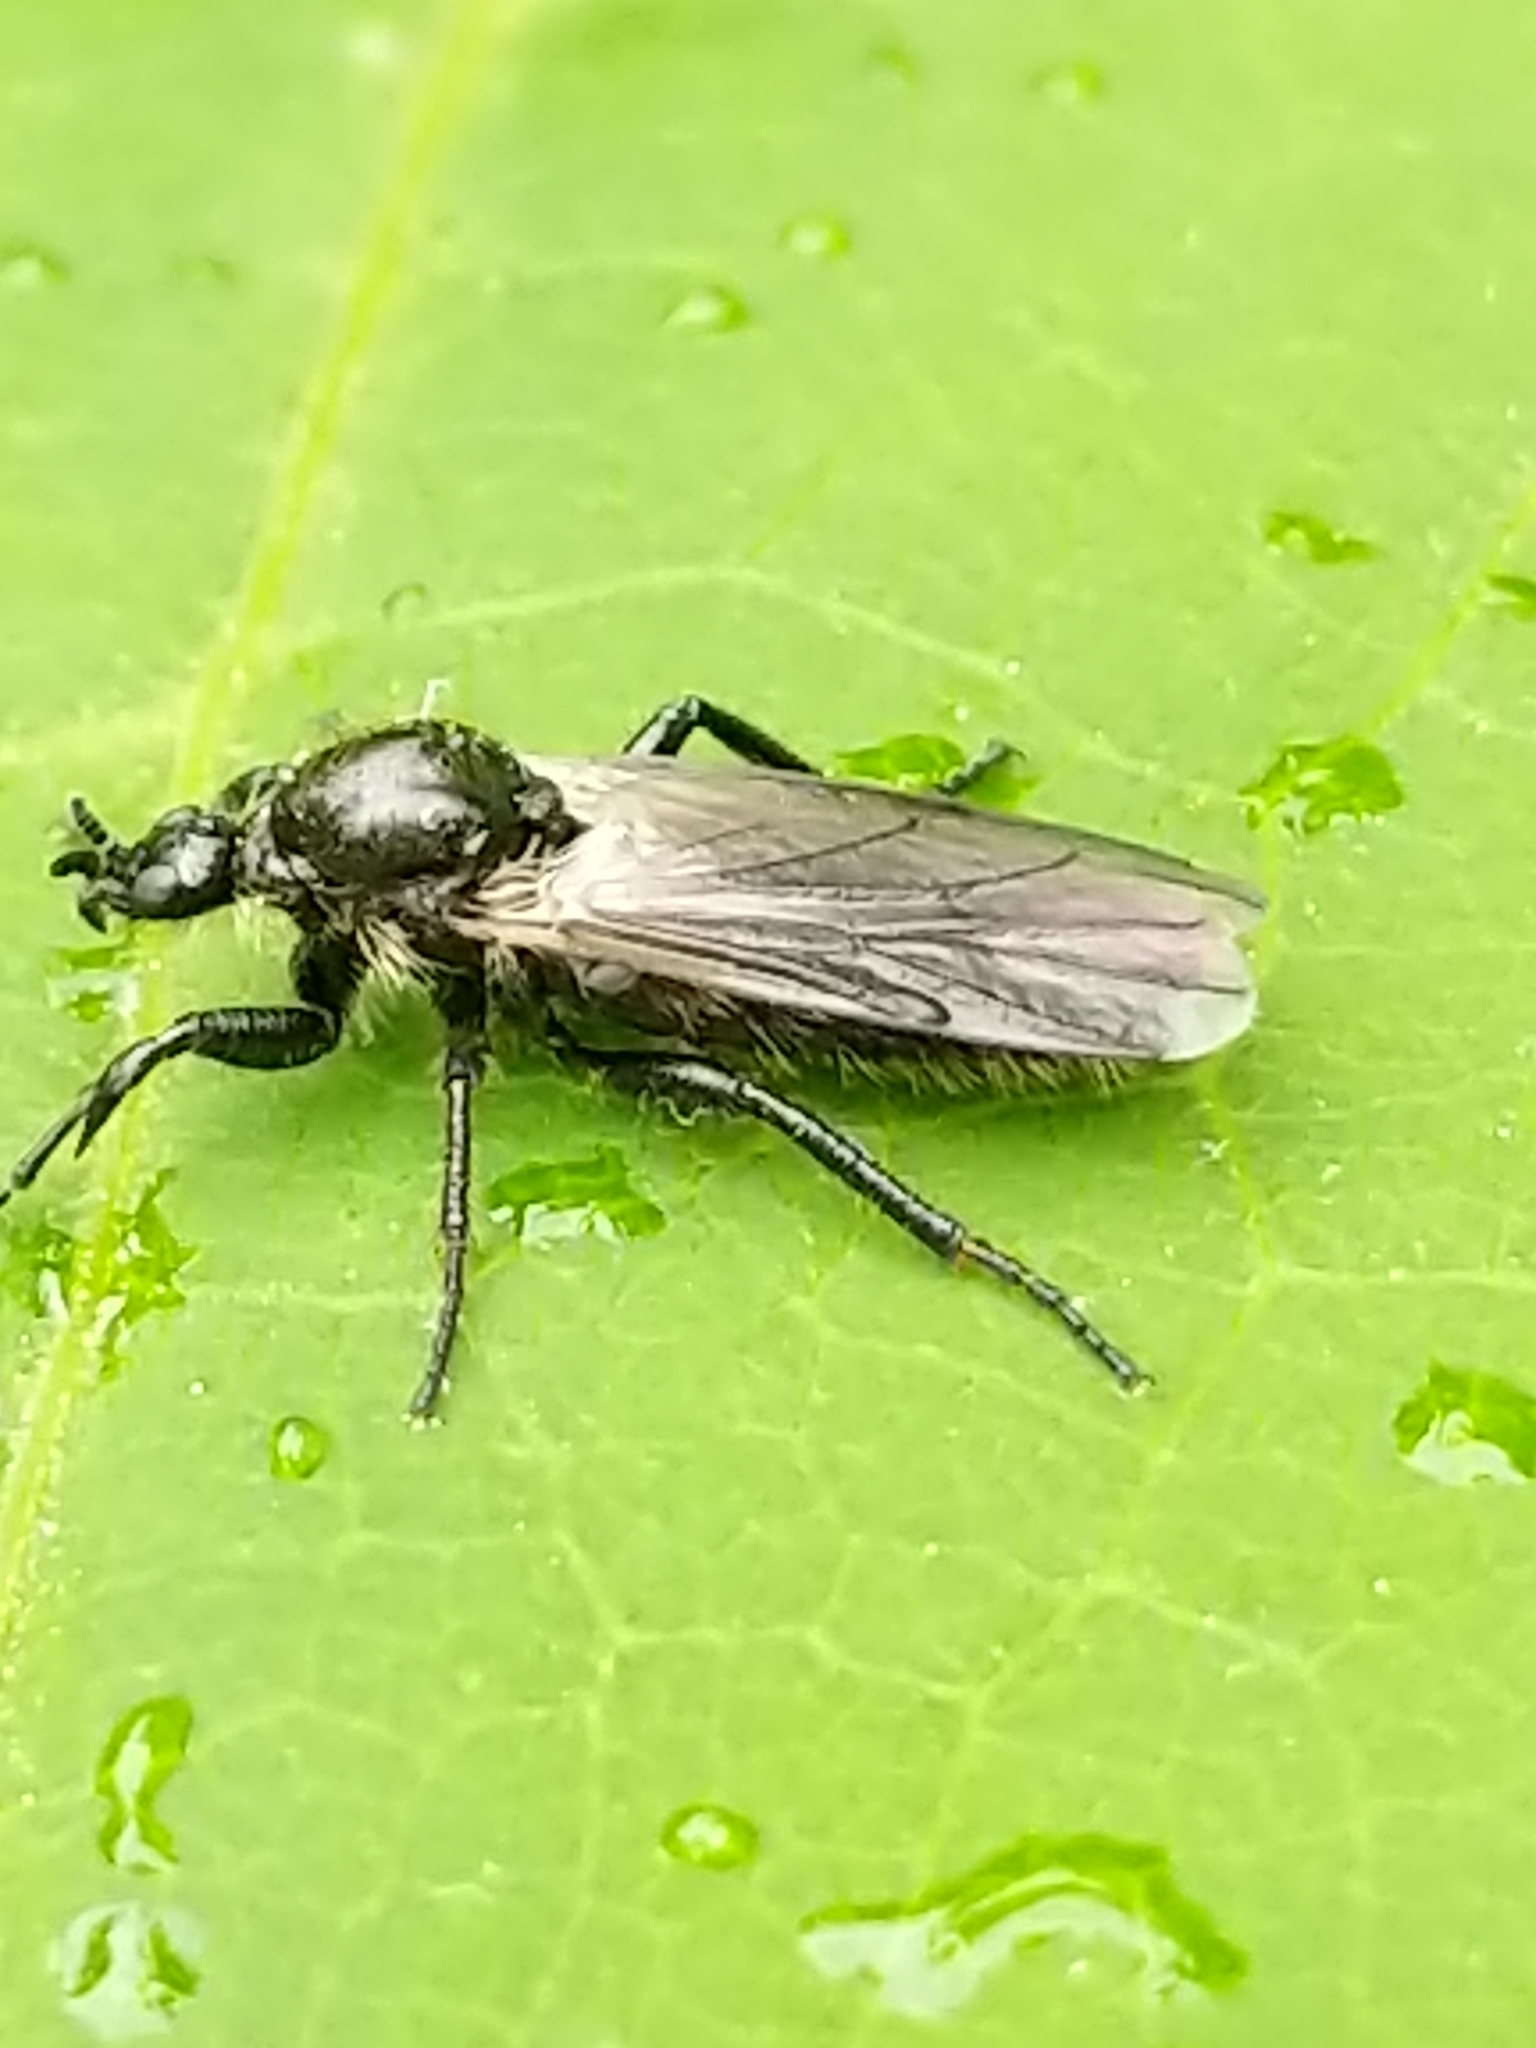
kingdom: Animalia
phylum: Arthropoda
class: Insecta
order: Diptera
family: Bibionidae
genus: Bibio
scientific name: Bibio albipennis
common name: White-winged march fly
